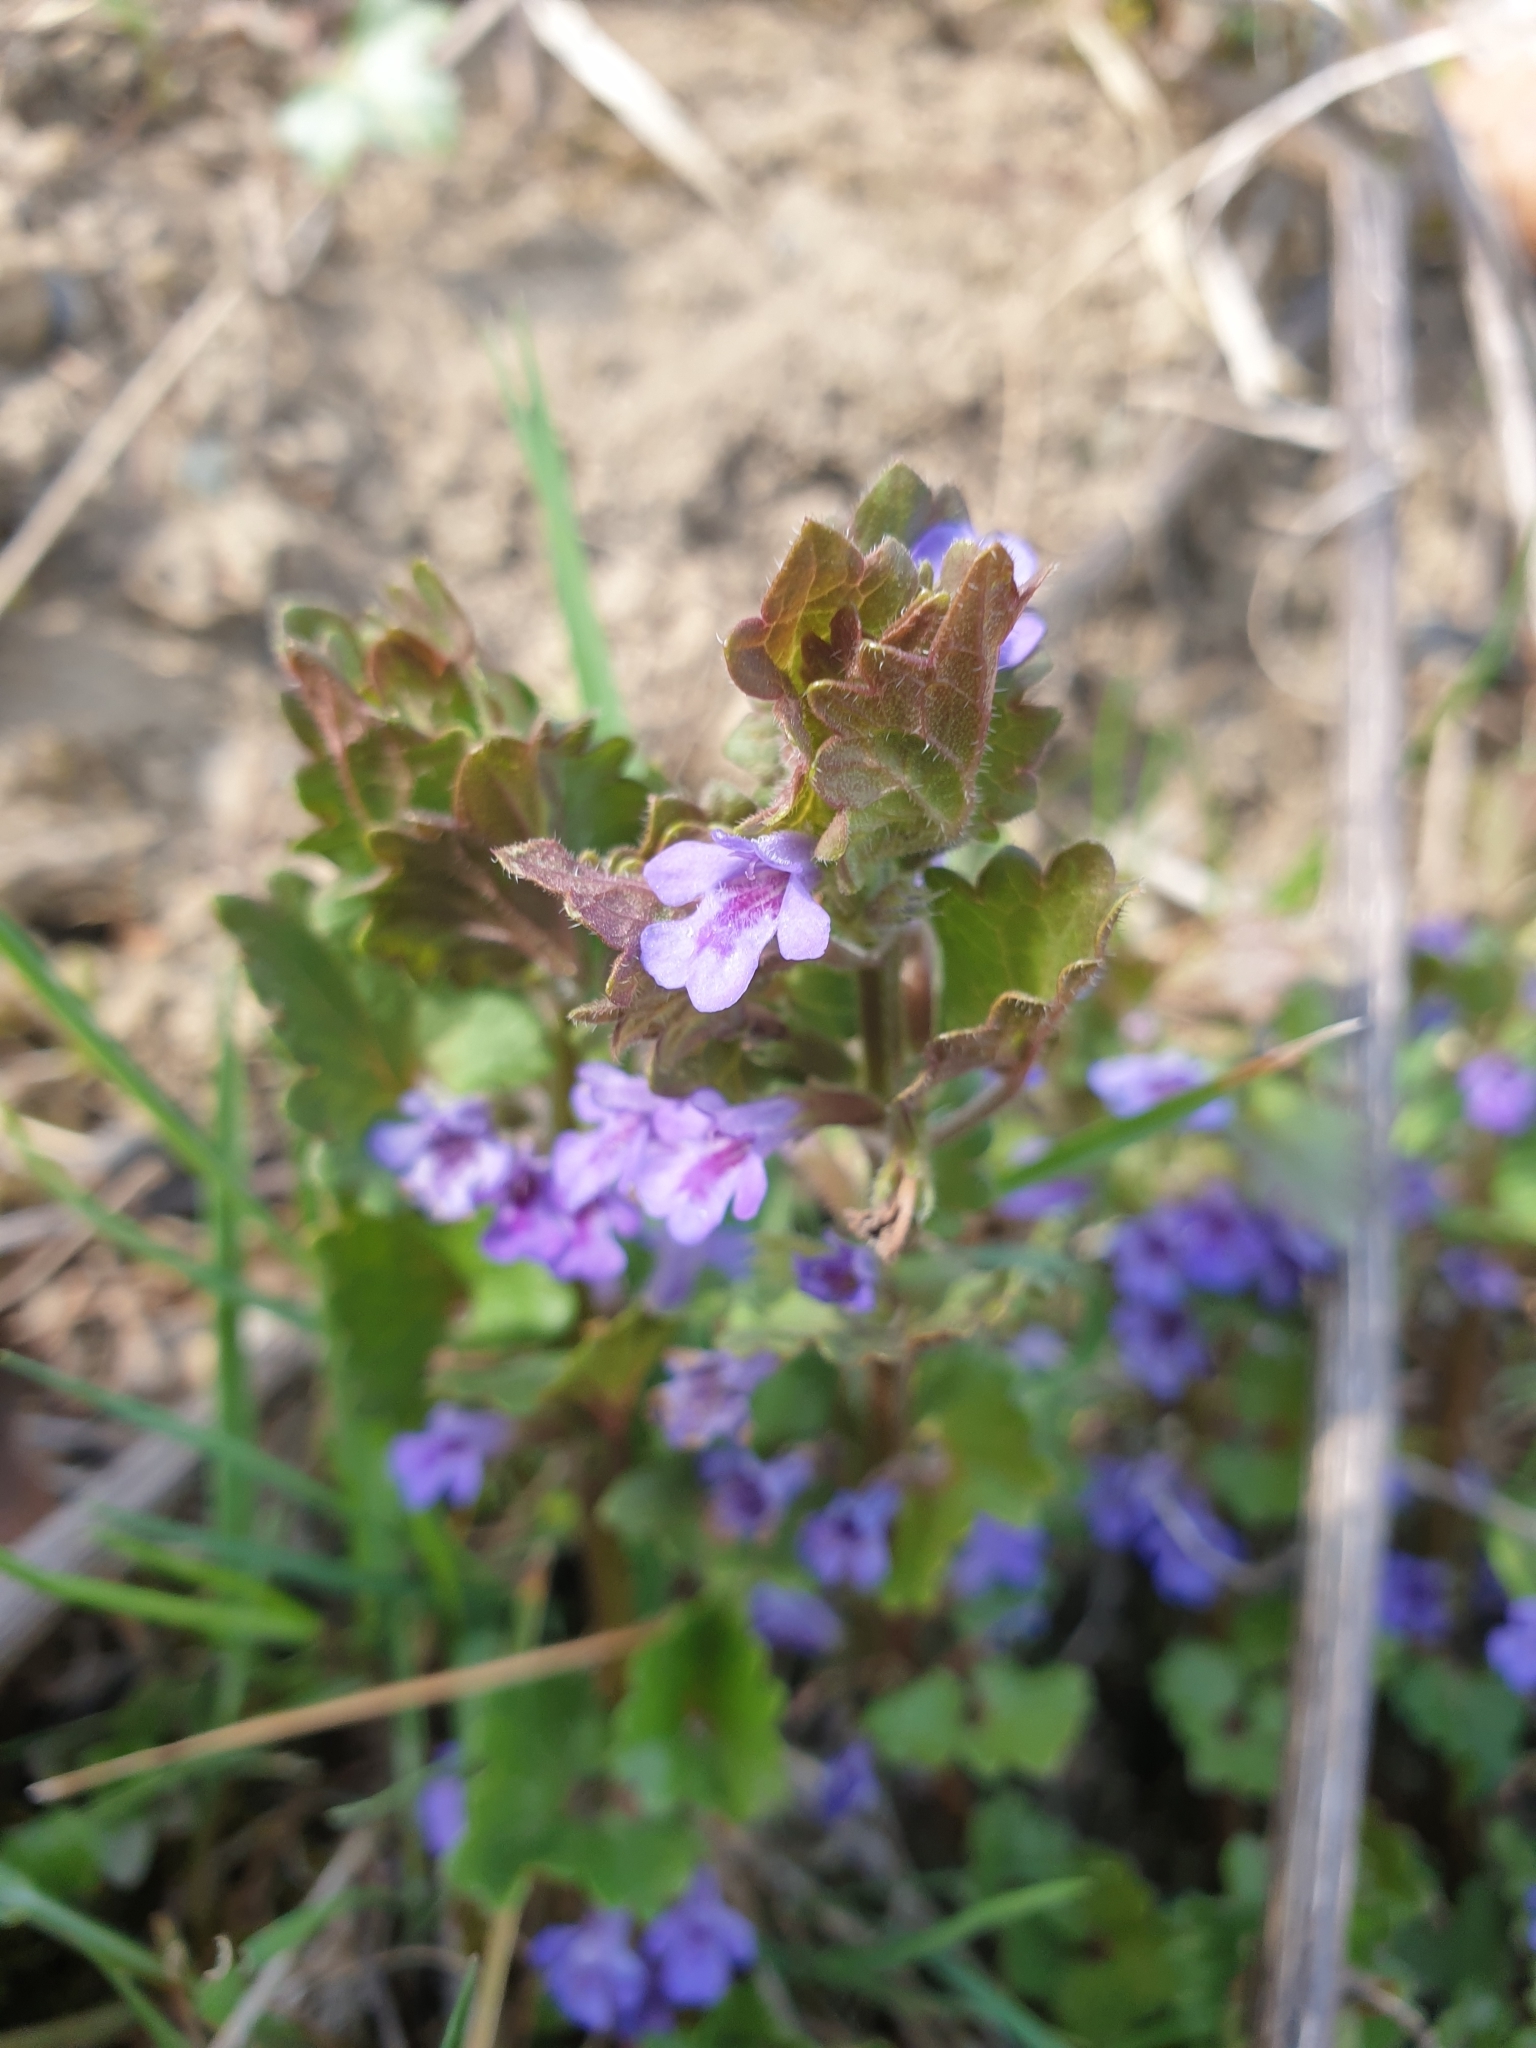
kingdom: Plantae
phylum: Tracheophyta
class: Magnoliopsida
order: Lamiales
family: Lamiaceae
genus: Glechoma
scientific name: Glechoma hederacea
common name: Ground ivy
